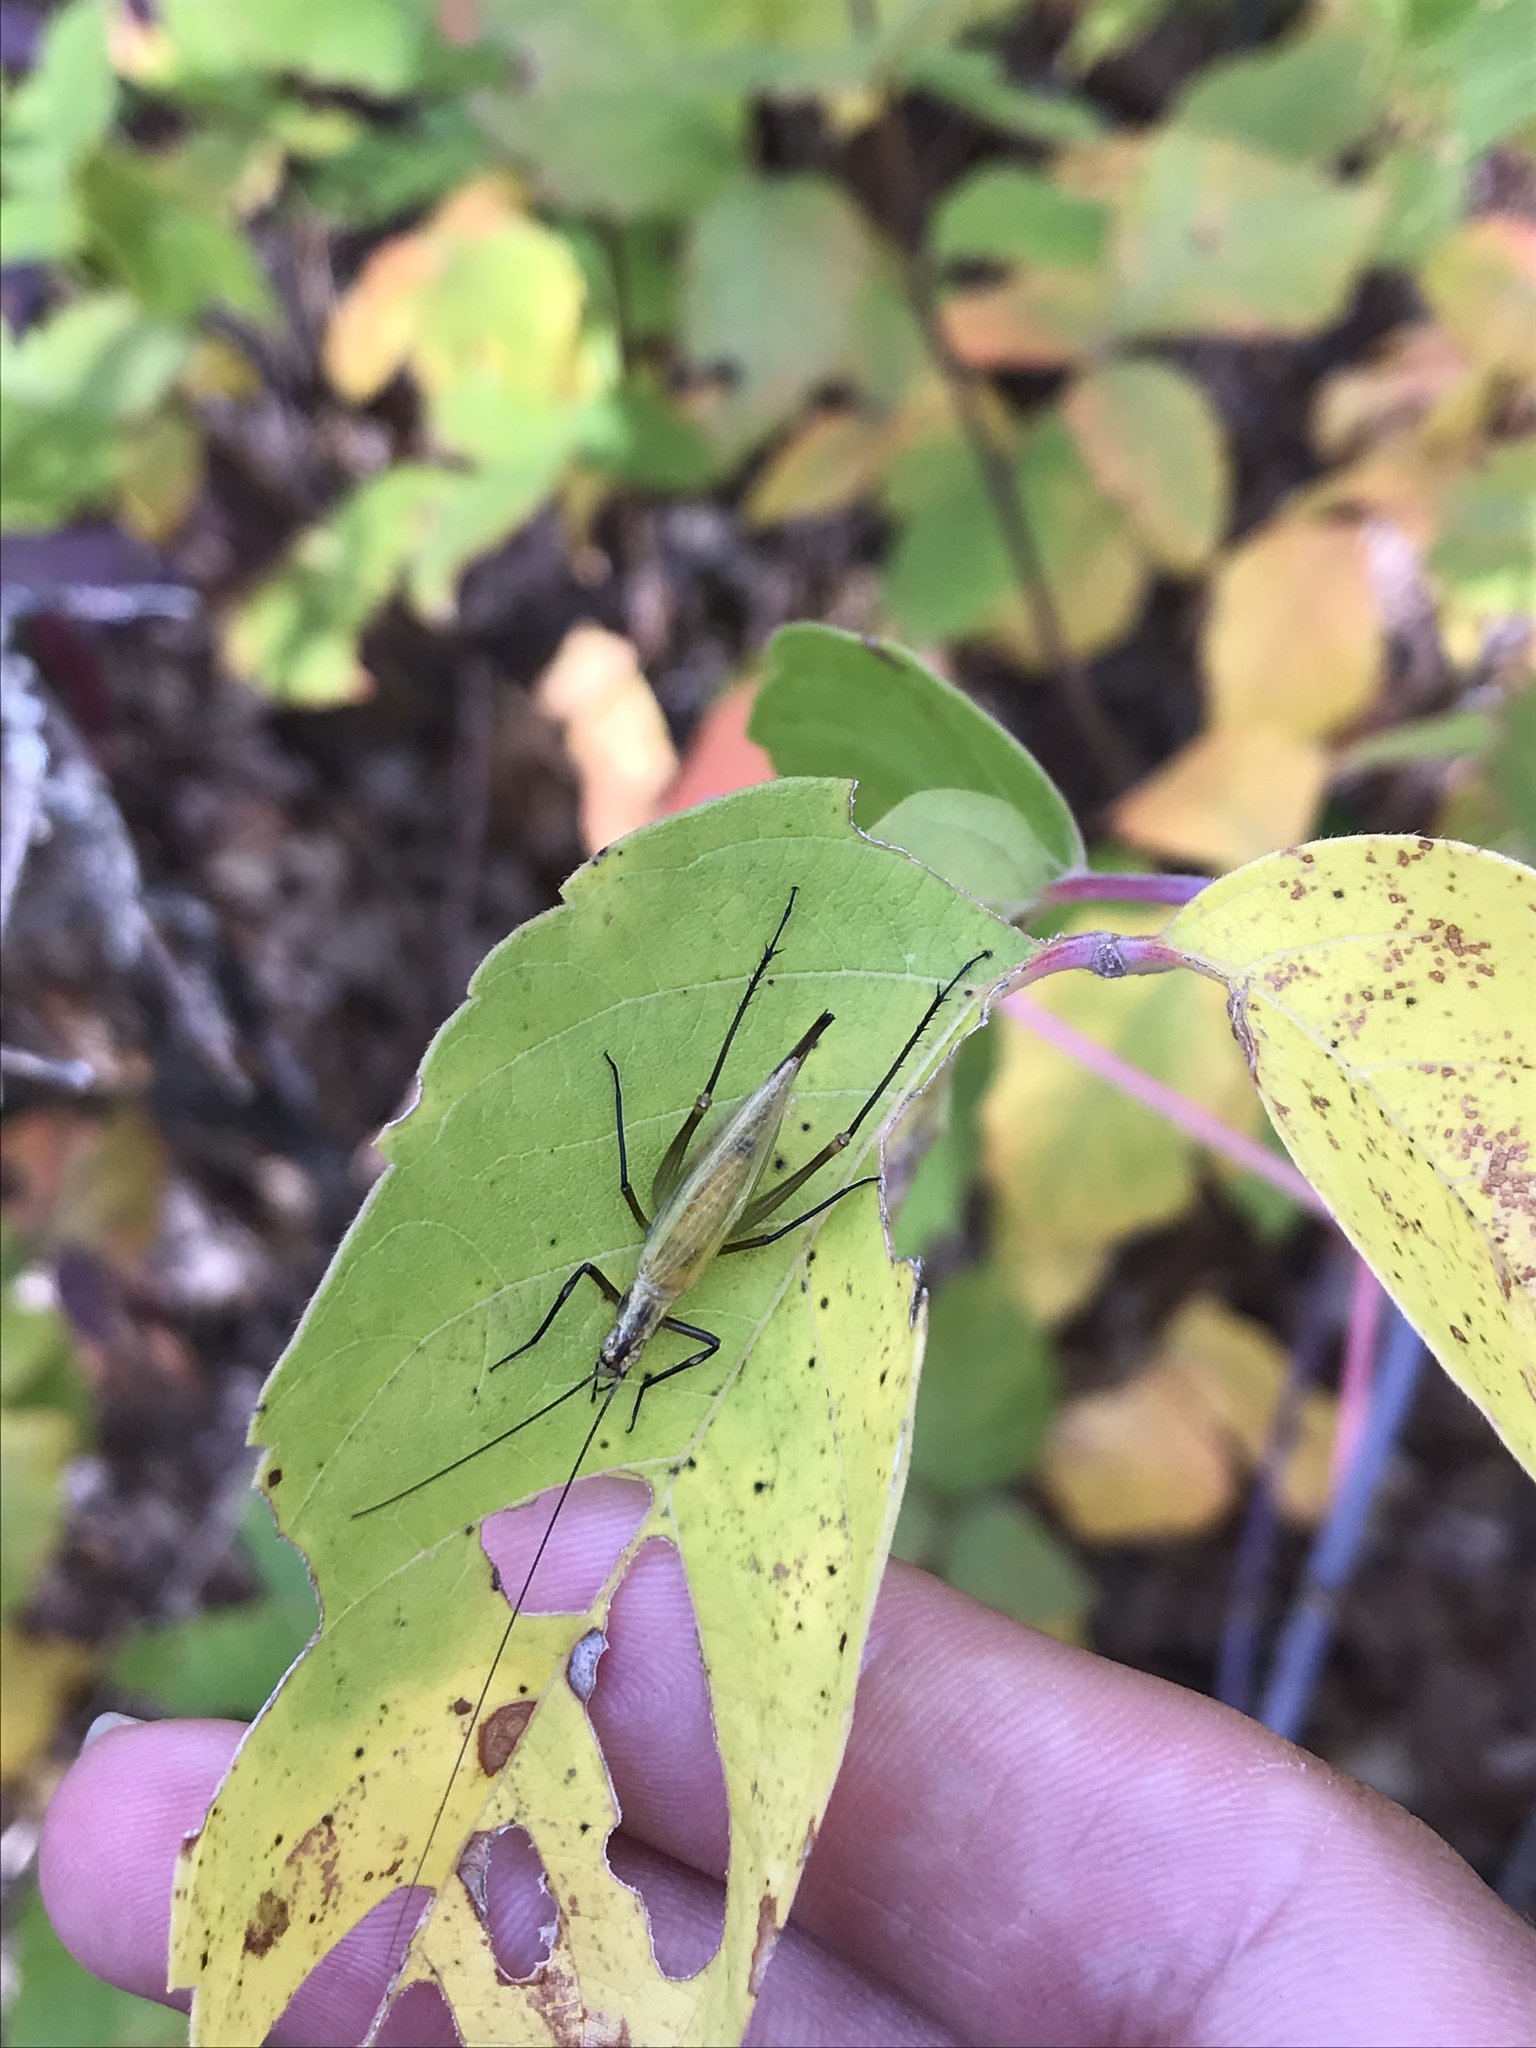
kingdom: Animalia
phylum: Arthropoda
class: Insecta
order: Orthoptera
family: Gryllidae
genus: Oecanthus
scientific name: Oecanthus nigricornis
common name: Black-horned tree cricket
